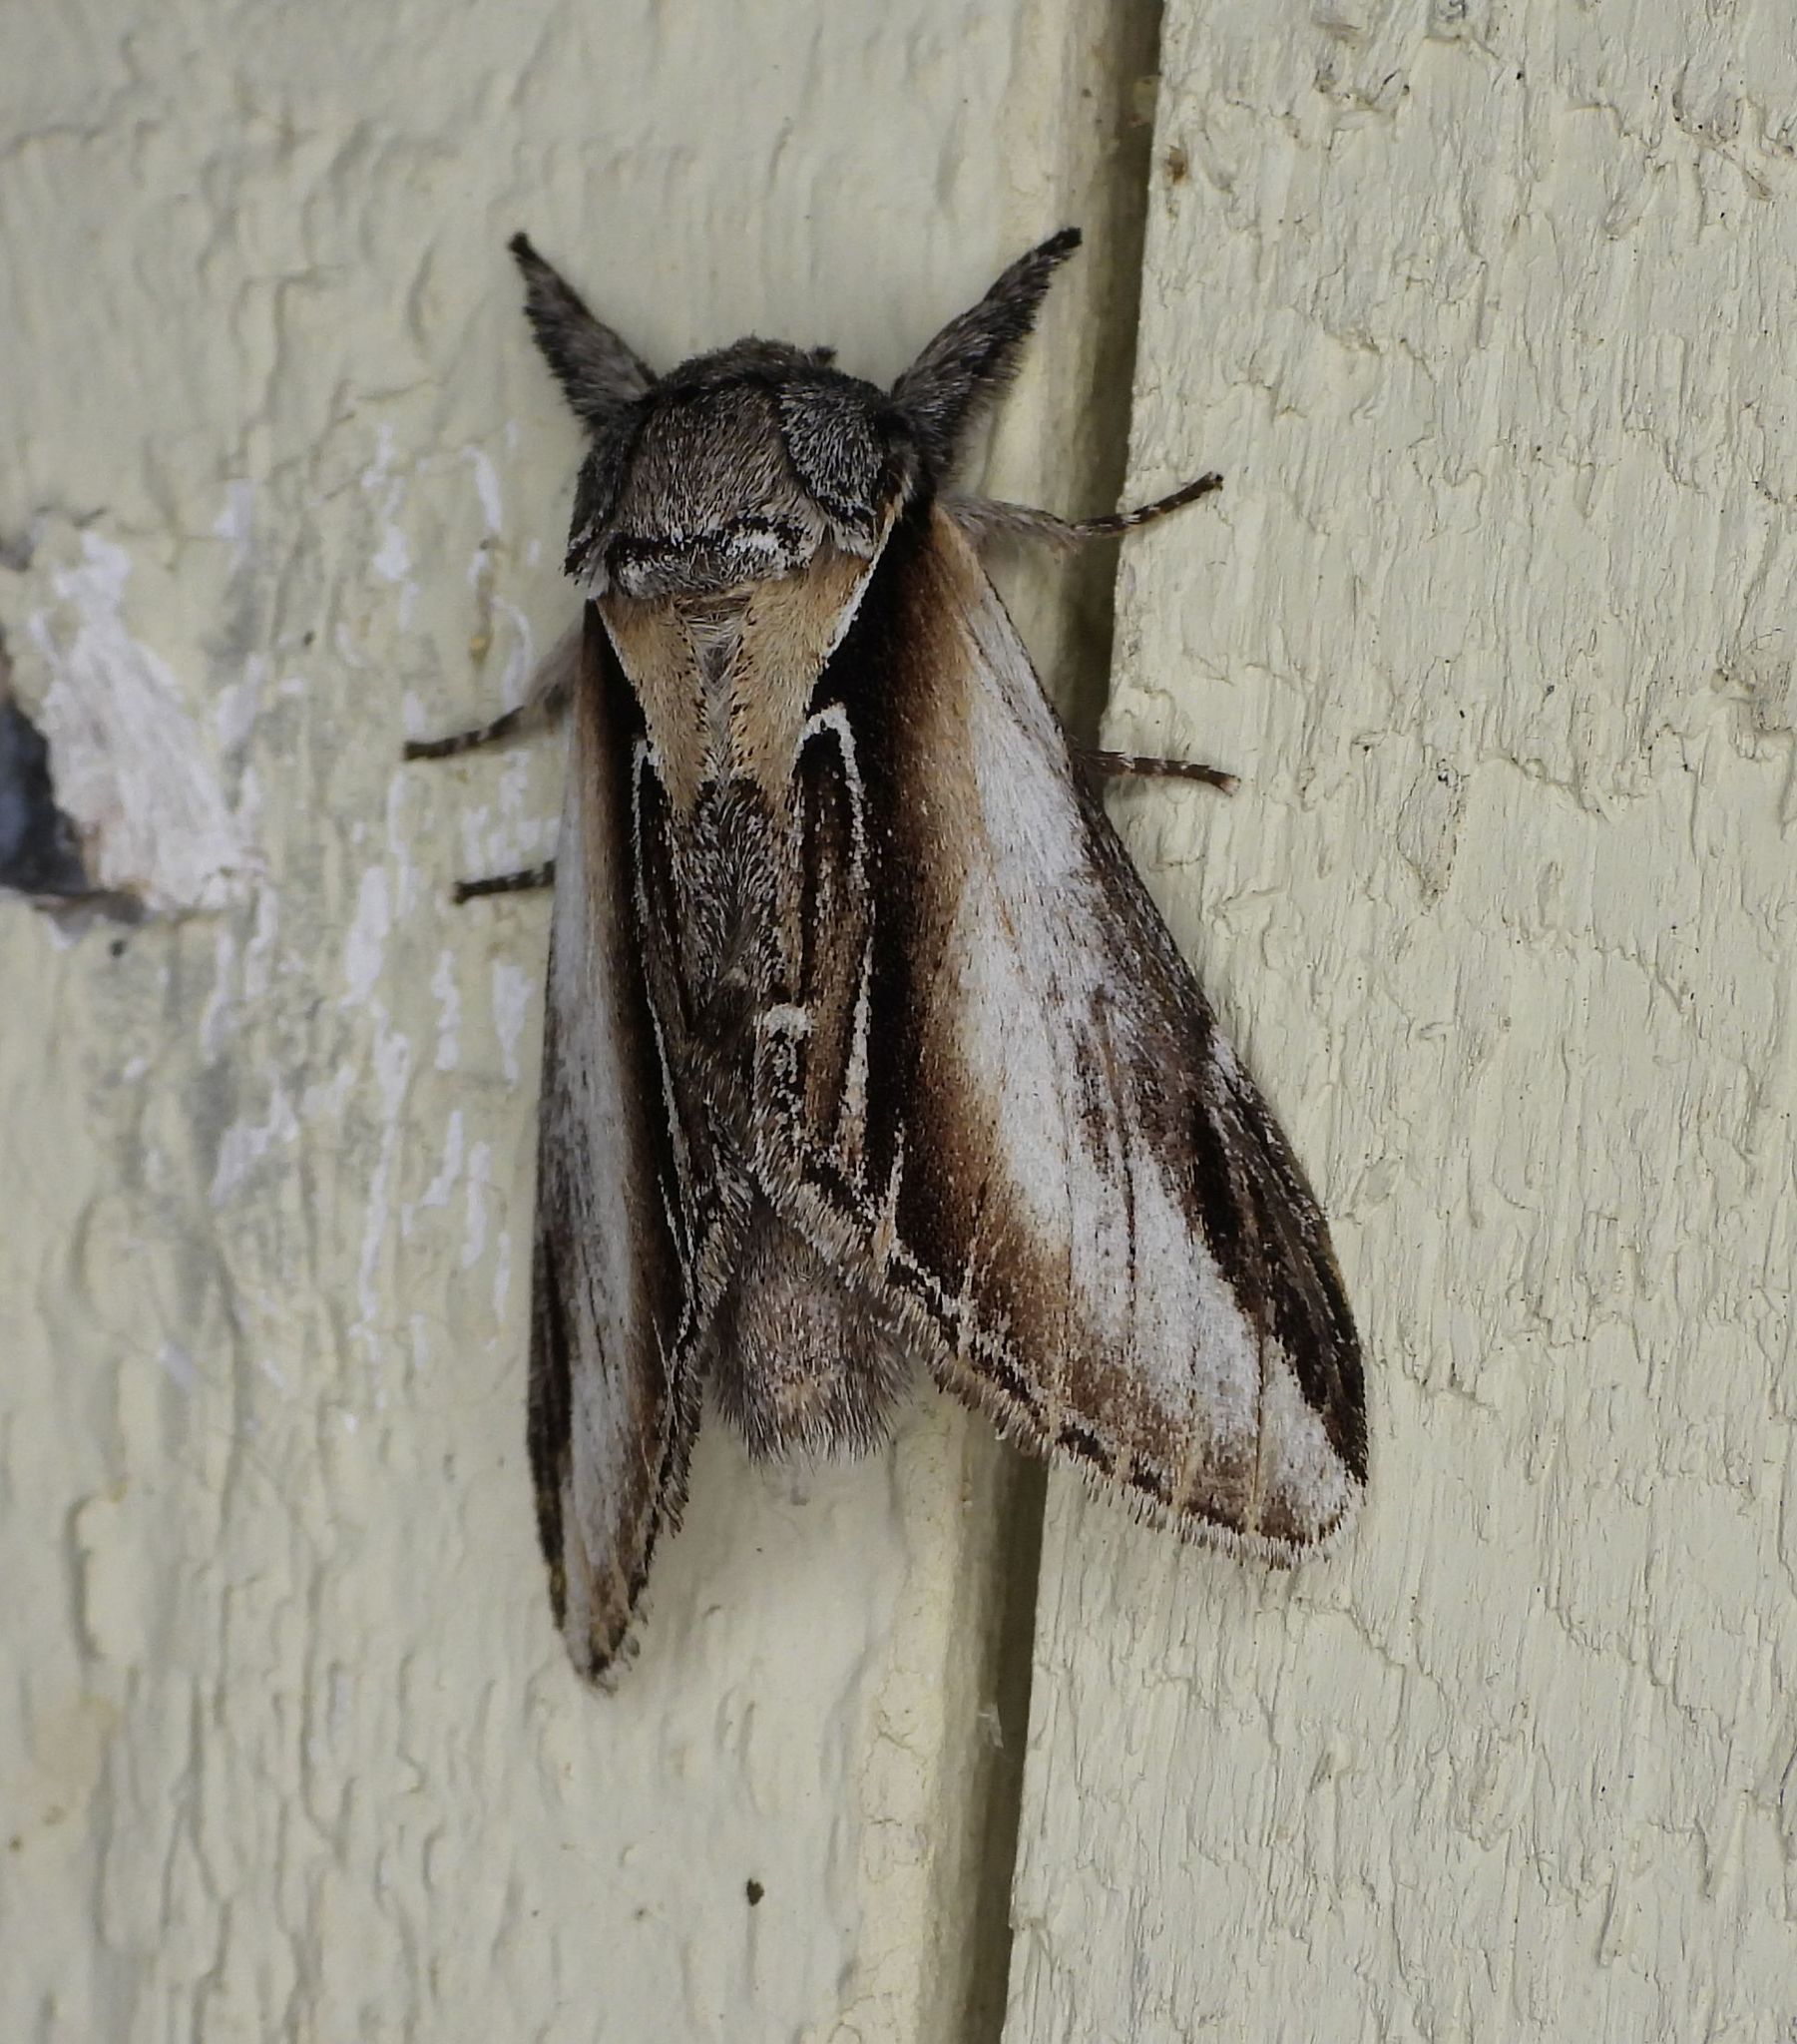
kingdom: Animalia
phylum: Arthropoda
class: Insecta
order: Lepidoptera
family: Notodontidae
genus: Pheosia
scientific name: Pheosia rimosa
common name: Black-rimmed prominent
